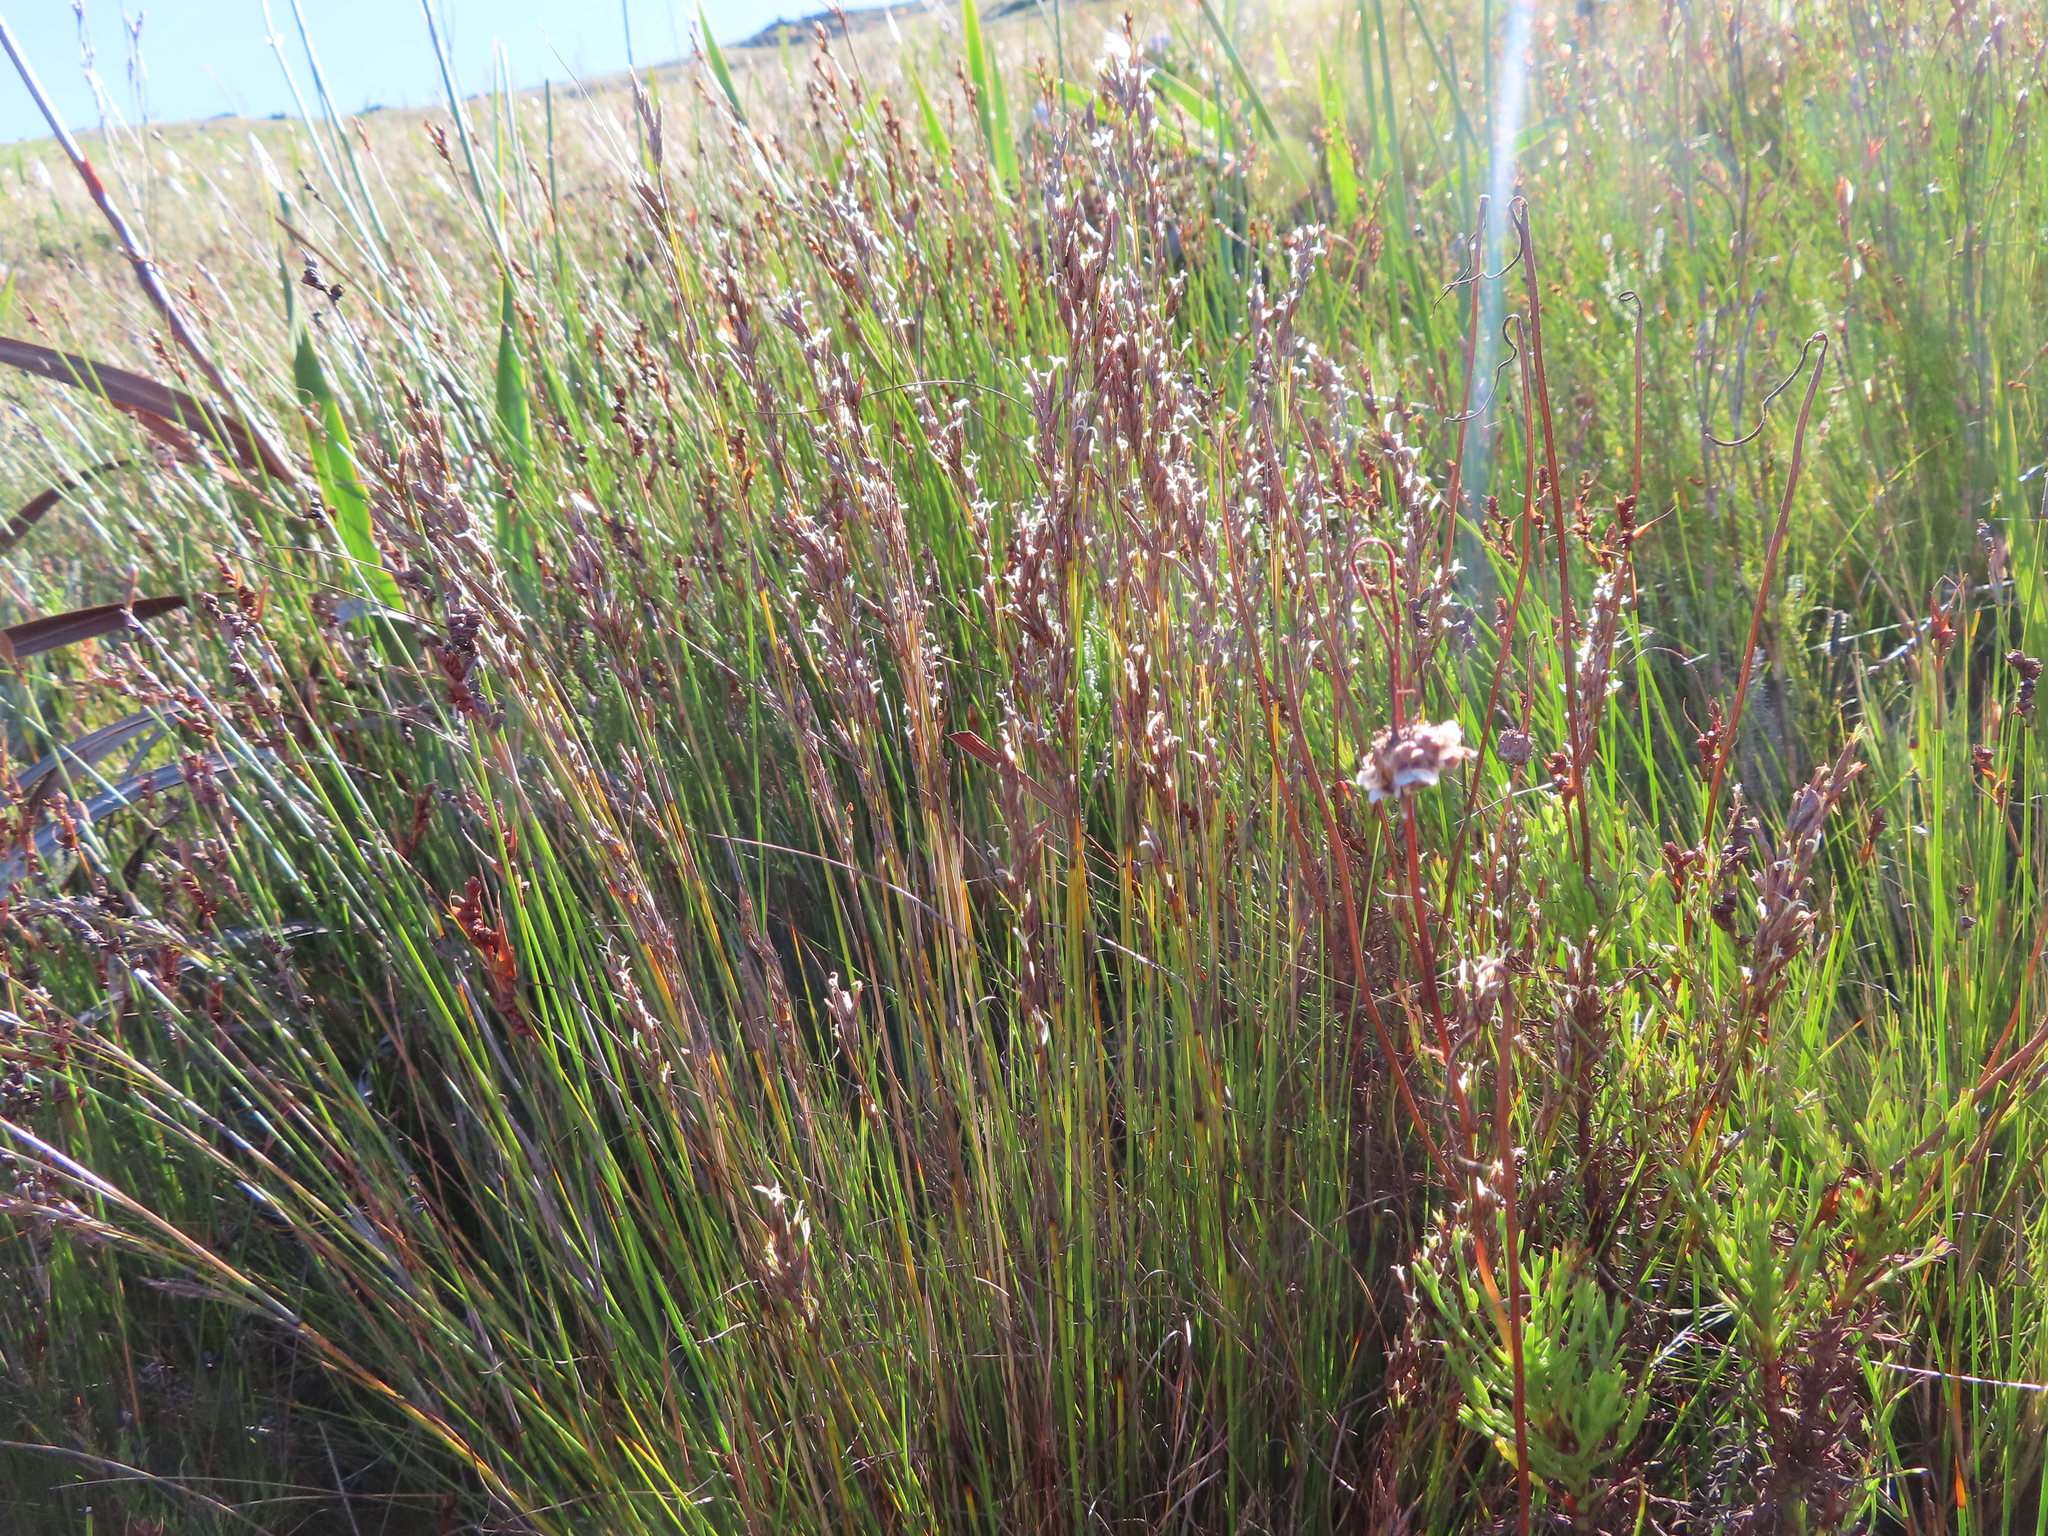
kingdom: Plantae
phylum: Tracheophyta
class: Liliopsida
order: Poales
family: Cyperaceae
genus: Tetraria
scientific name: Tetraria fasciata
